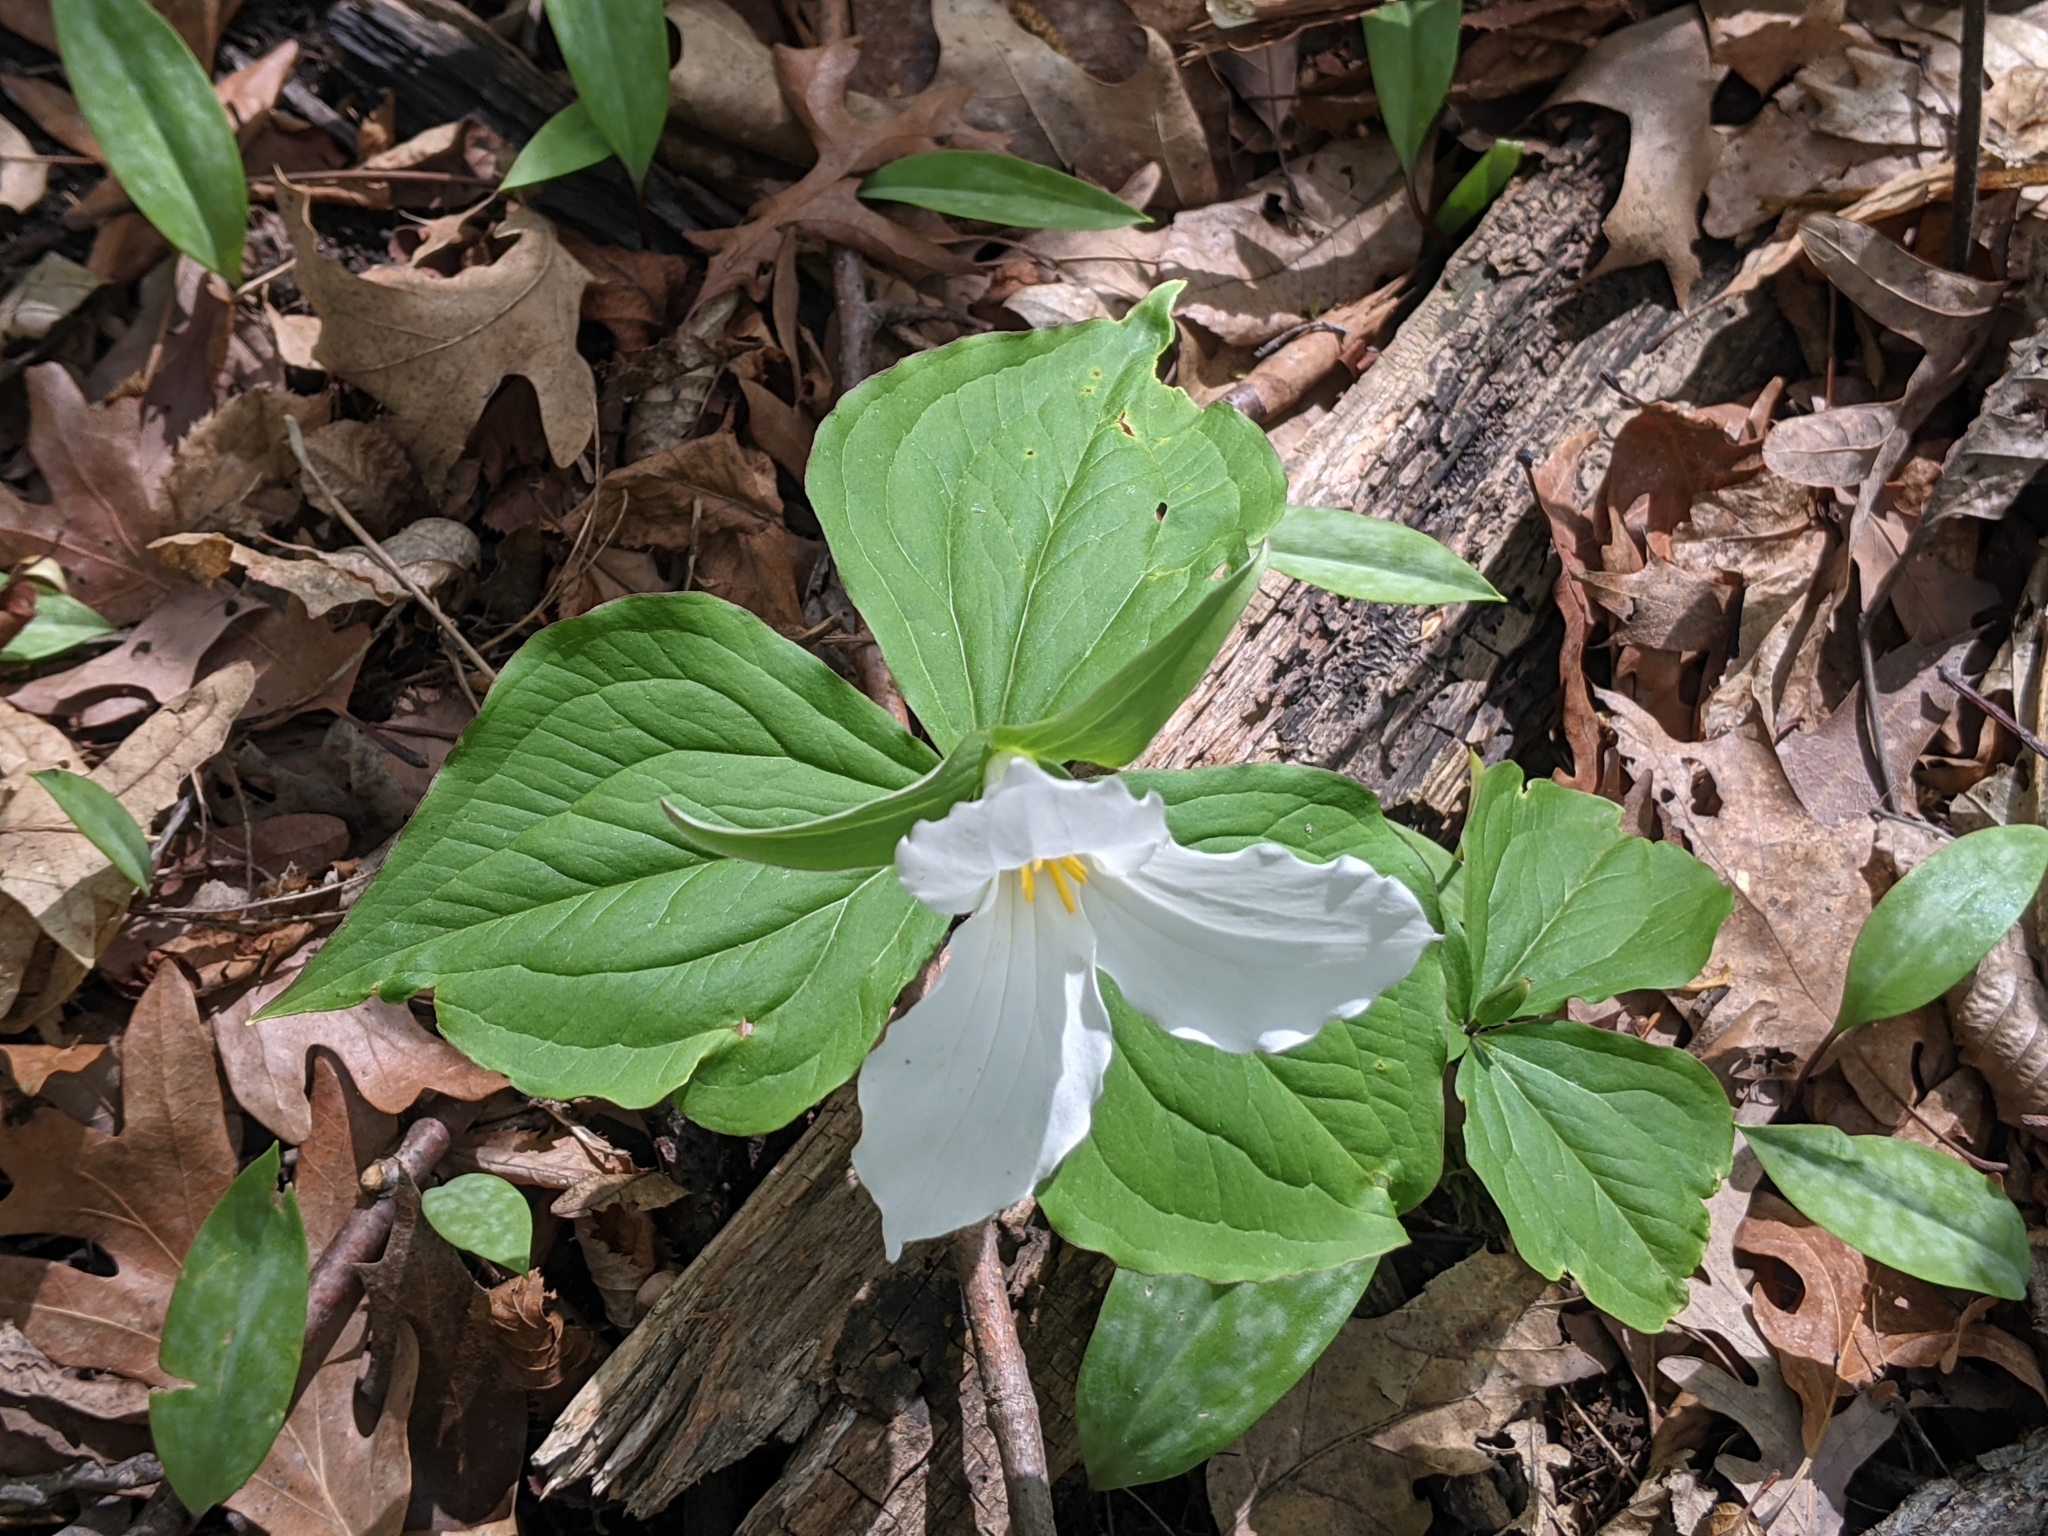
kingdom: Plantae
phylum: Tracheophyta
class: Liliopsida
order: Liliales
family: Melanthiaceae
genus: Trillium
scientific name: Trillium grandiflorum
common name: Great white trillium
